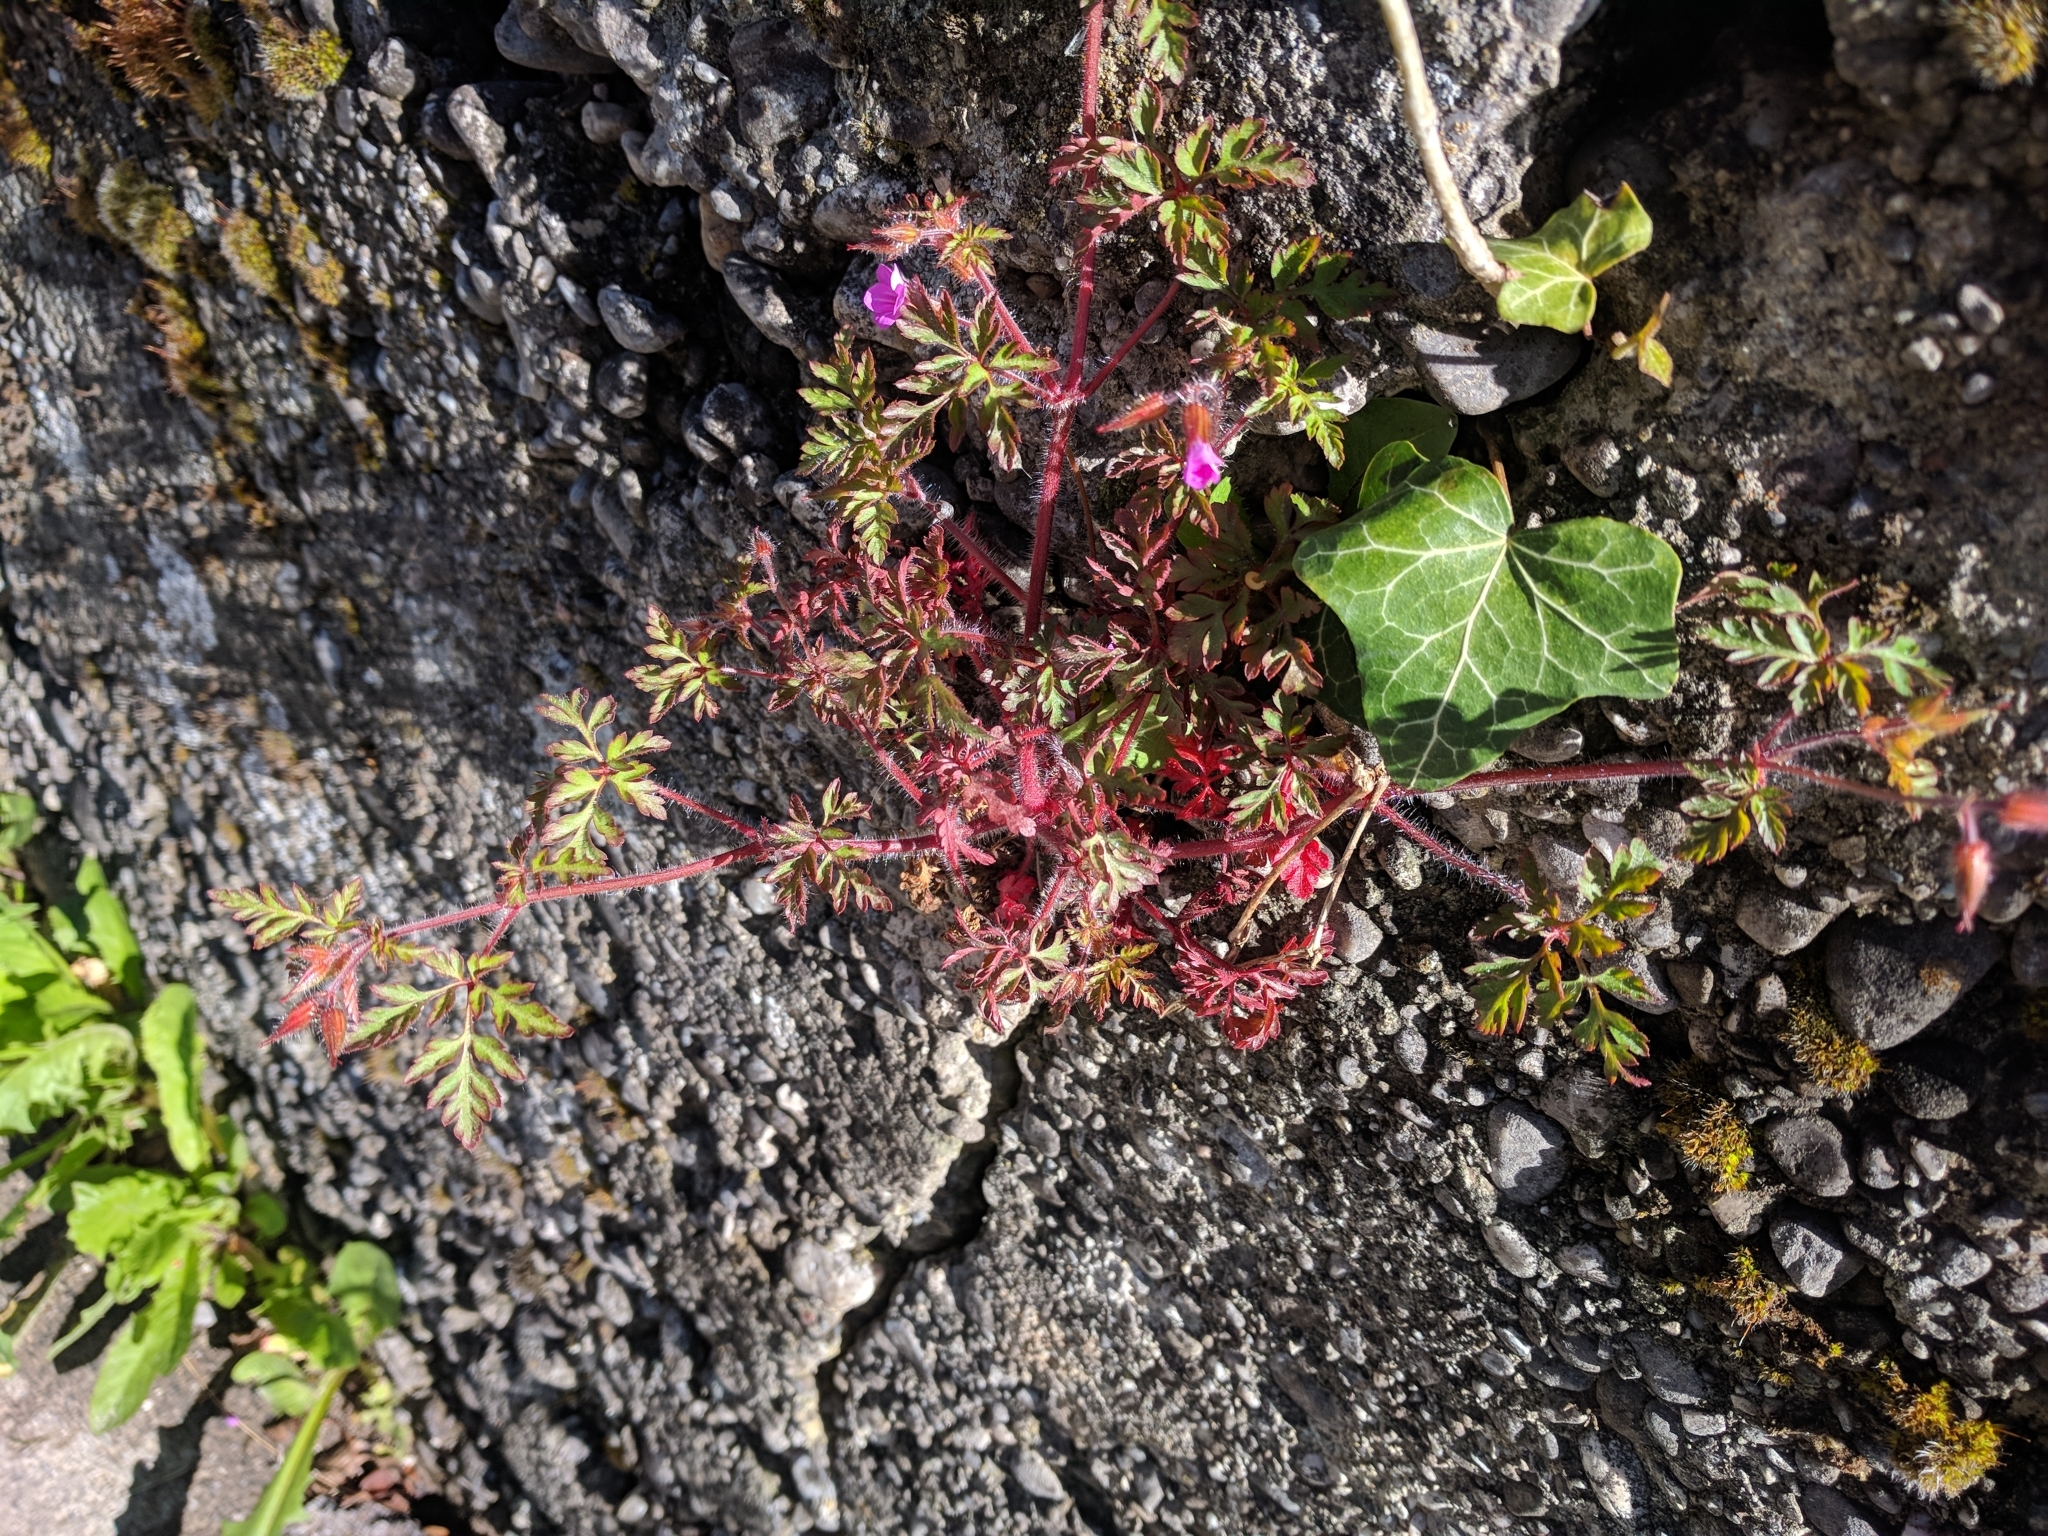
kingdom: Plantae
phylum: Tracheophyta
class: Magnoliopsida
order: Geraniales
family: Geraniaceae
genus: Geranium
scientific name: Geranium robertianum
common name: Herb-robert
